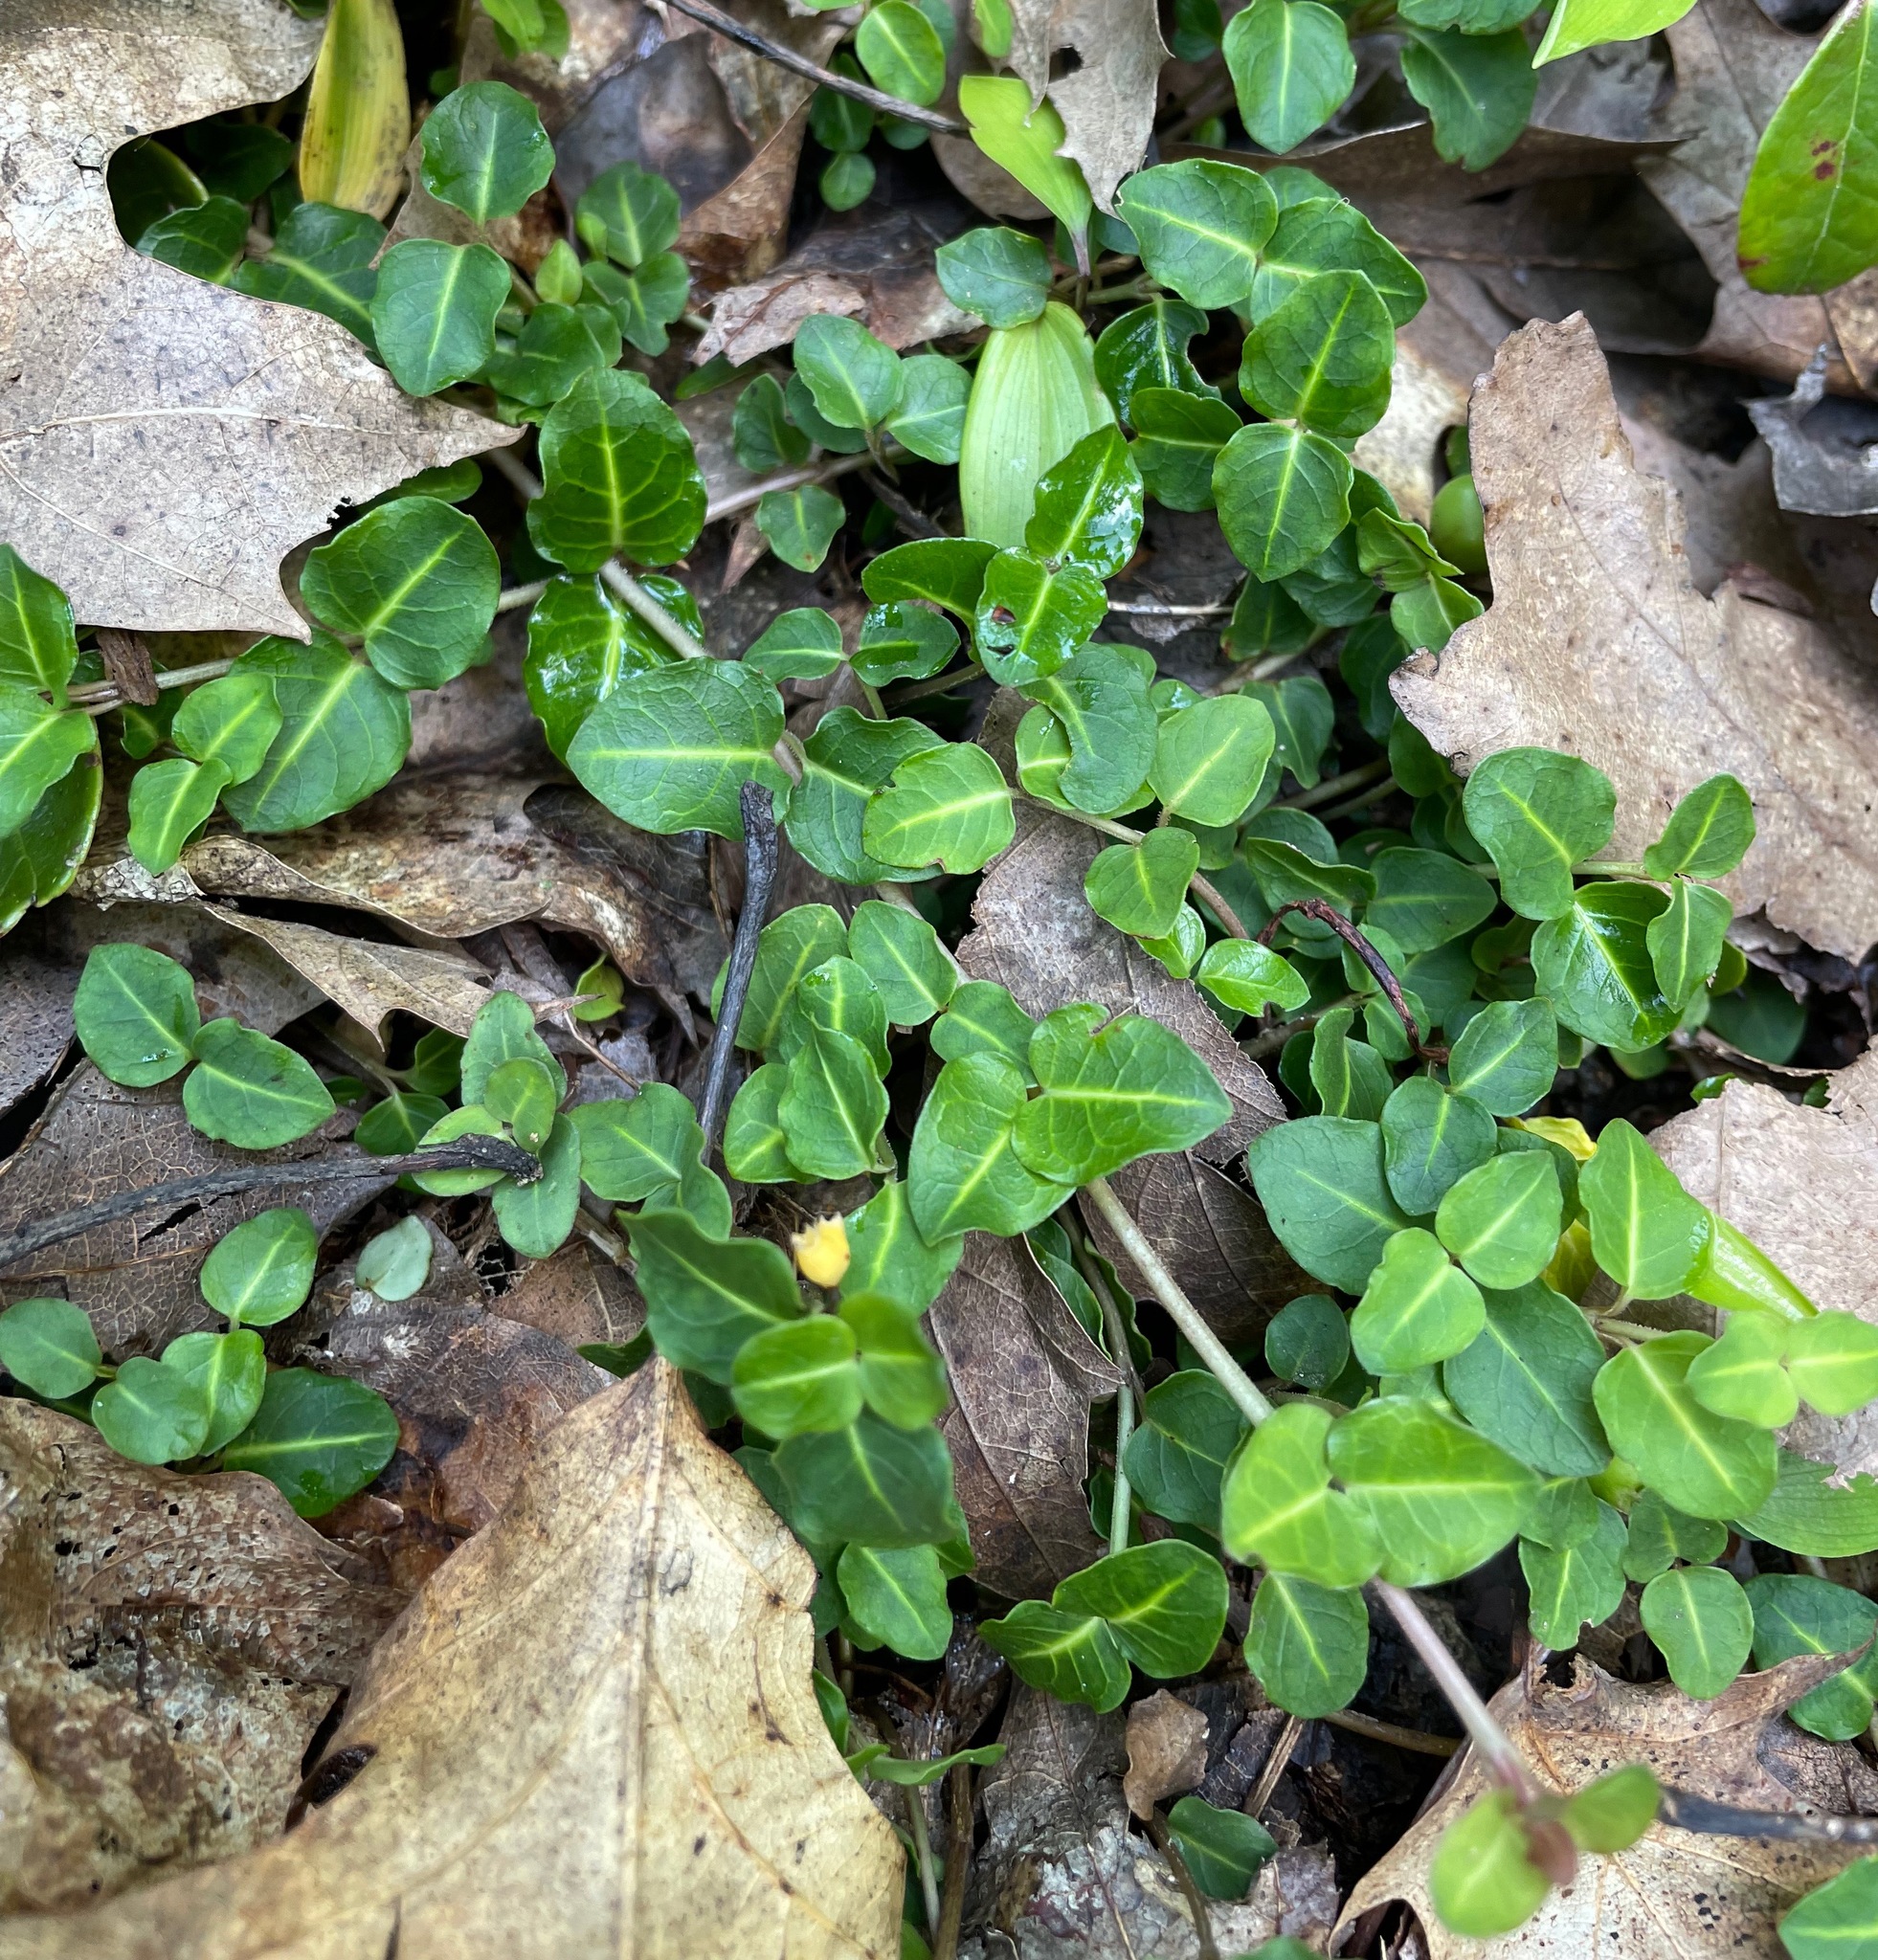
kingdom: Plantae
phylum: Tracheophyta
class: Magnoliopsida
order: Gentianales
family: Rubiaceae
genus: Mitchella
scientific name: Mitchella repens
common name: Partridge-berry
